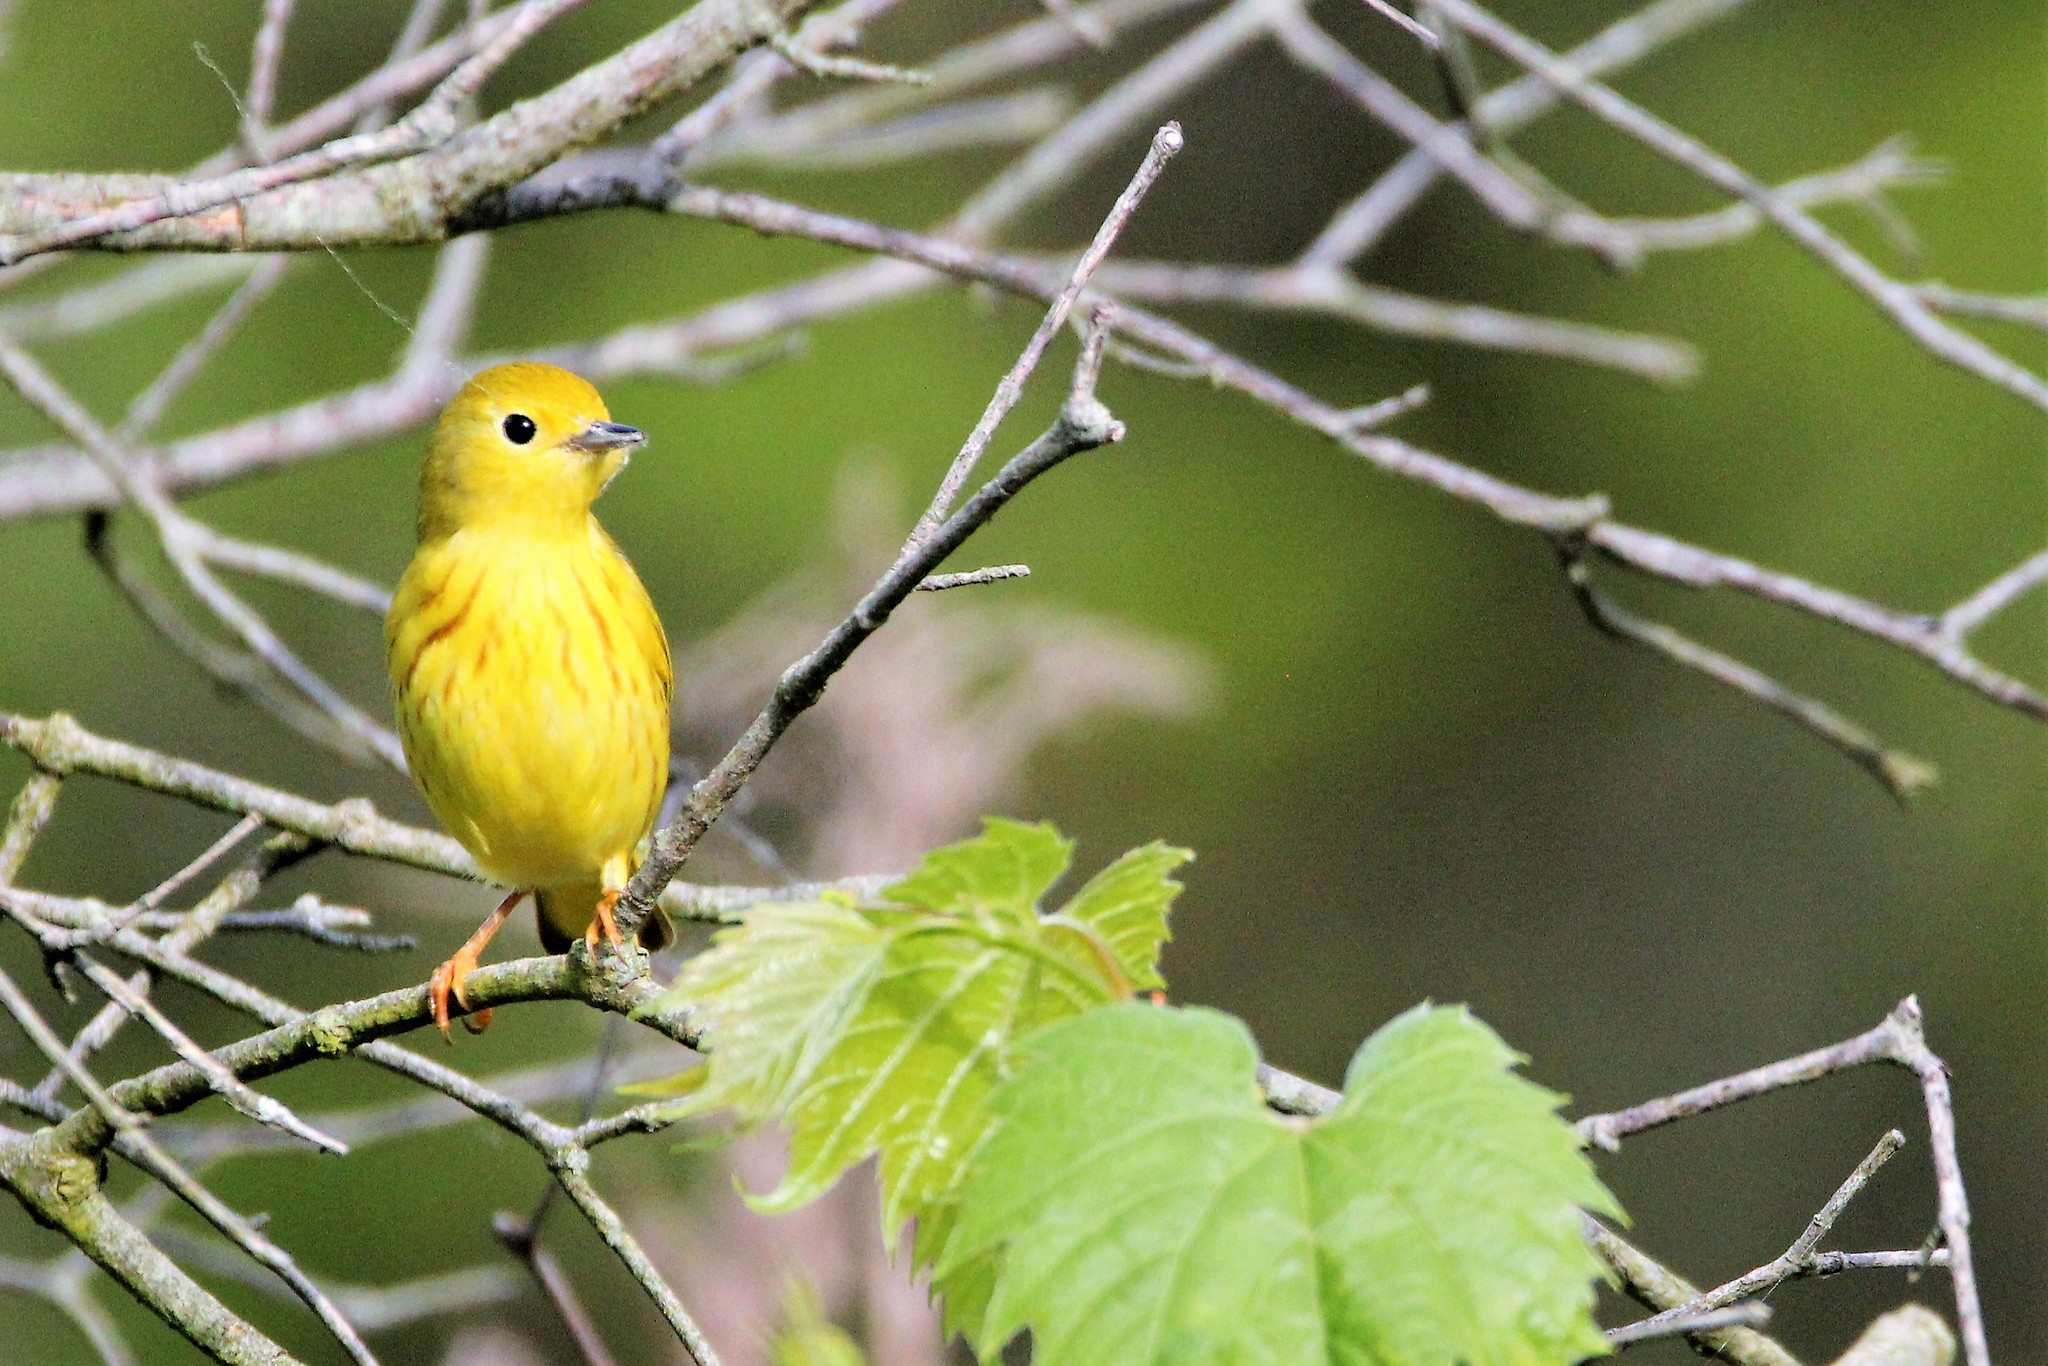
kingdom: Animalia
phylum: Chordata
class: Aves
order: Passeriformes
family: Parulidae
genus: Setophaga
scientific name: Setophaga petechia
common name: Yellow warbler
